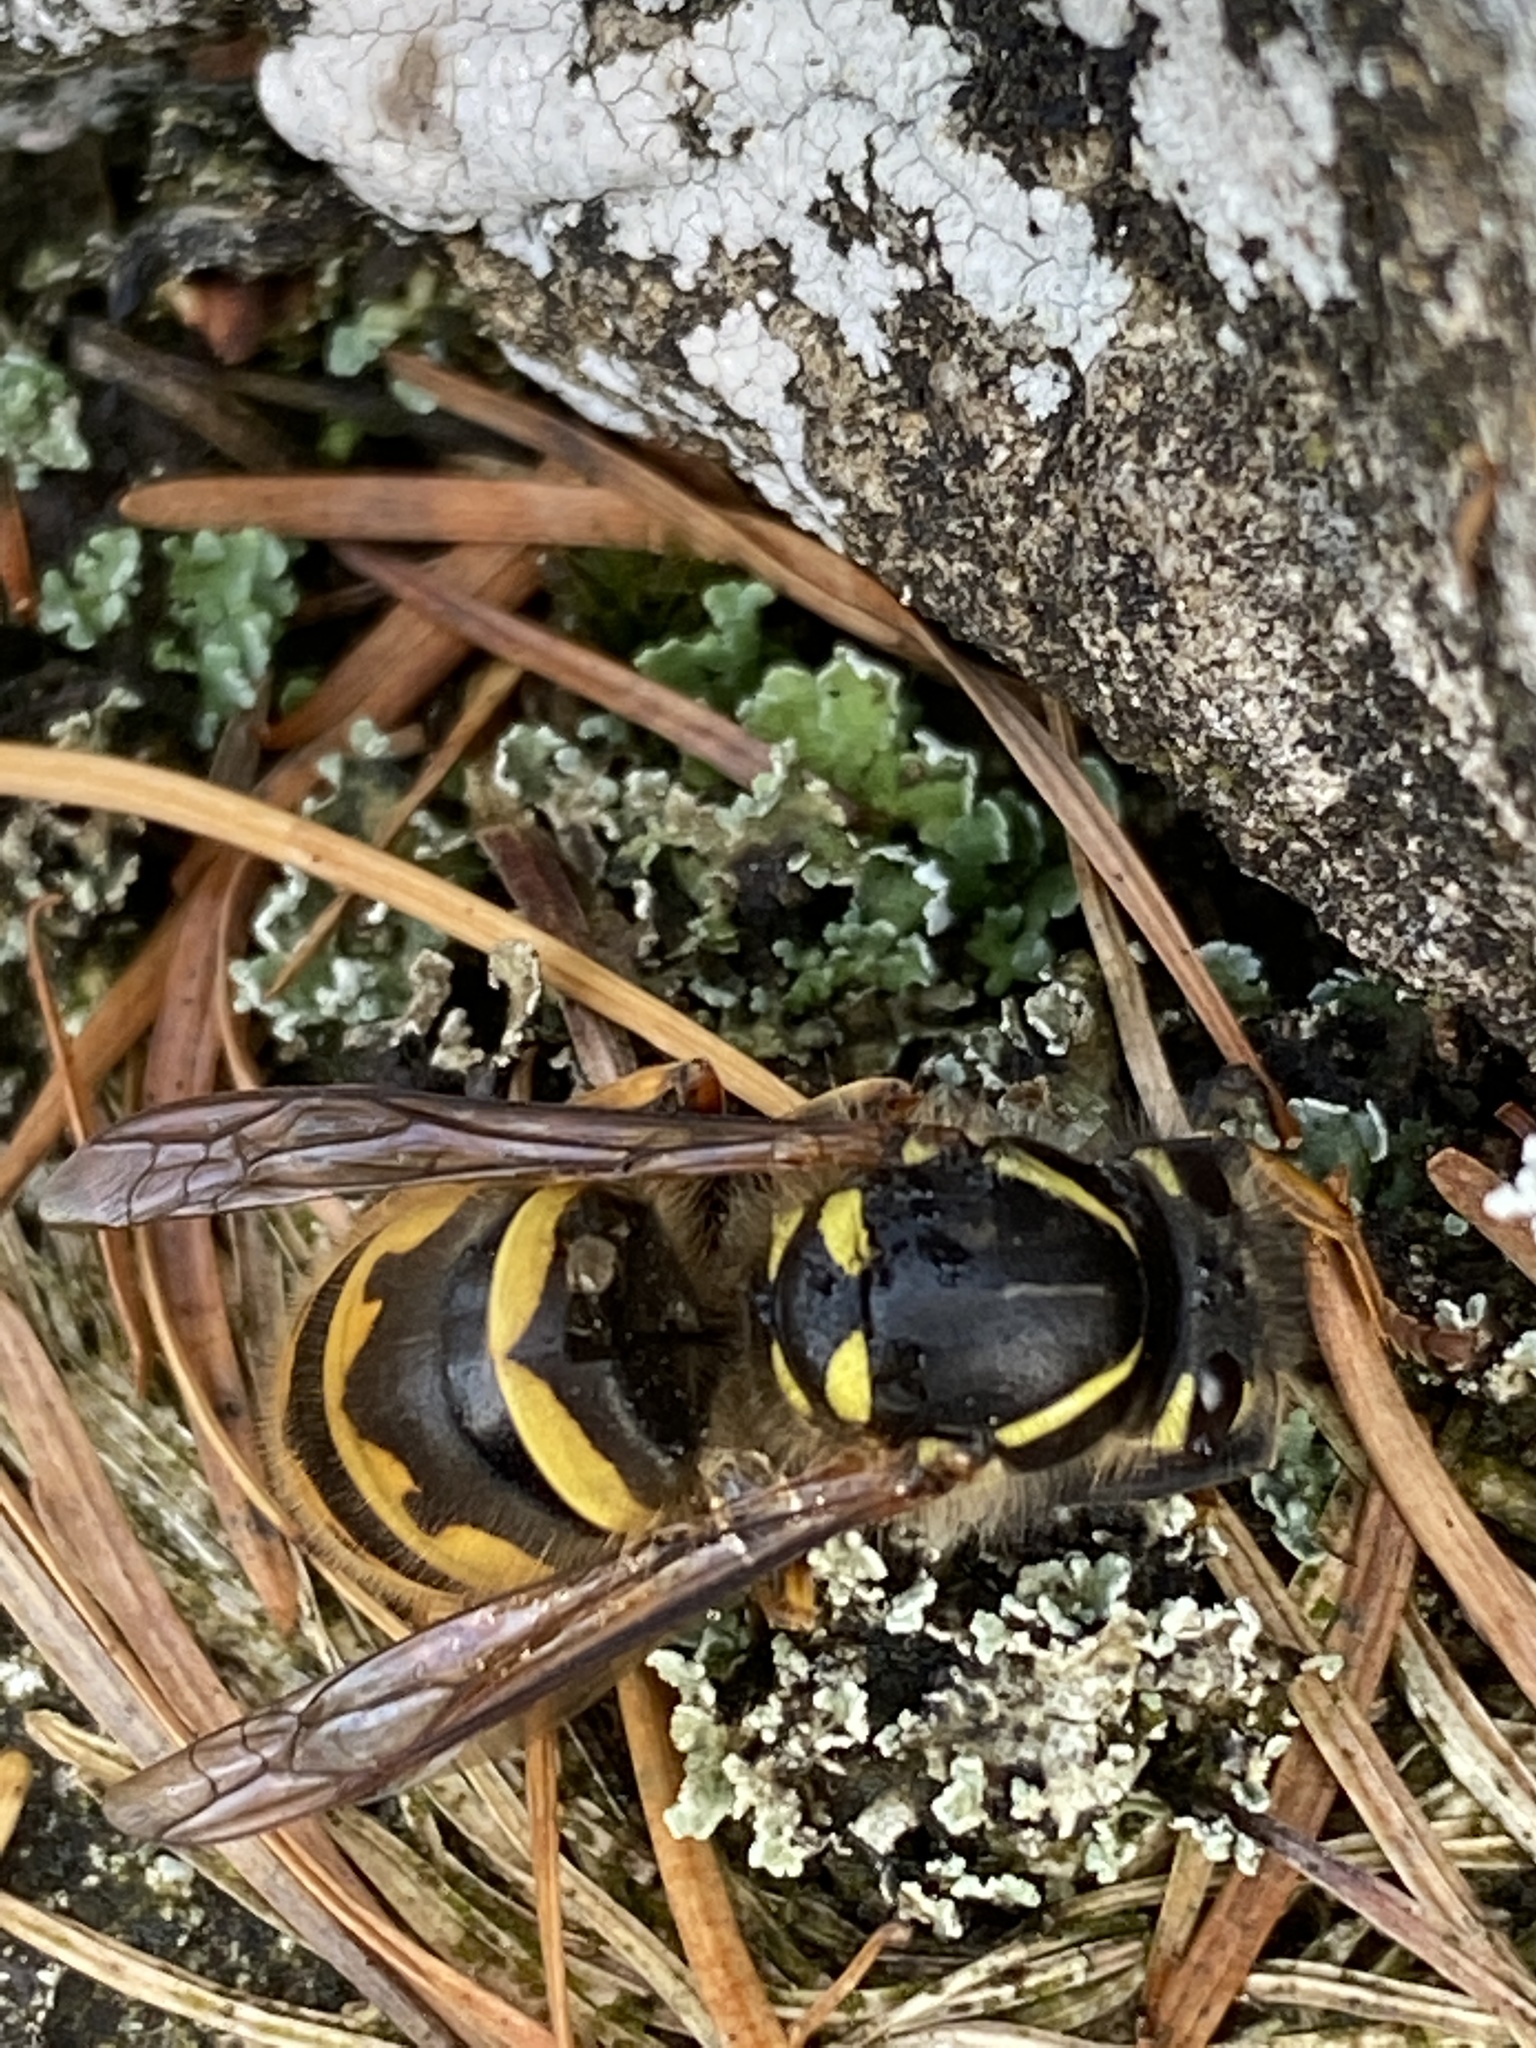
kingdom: Animalia
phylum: Arthropoda
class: Insecta
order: Hymenoptera
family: Vespidae
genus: Vespula
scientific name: Vespula vulgaris
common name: Common wasp
